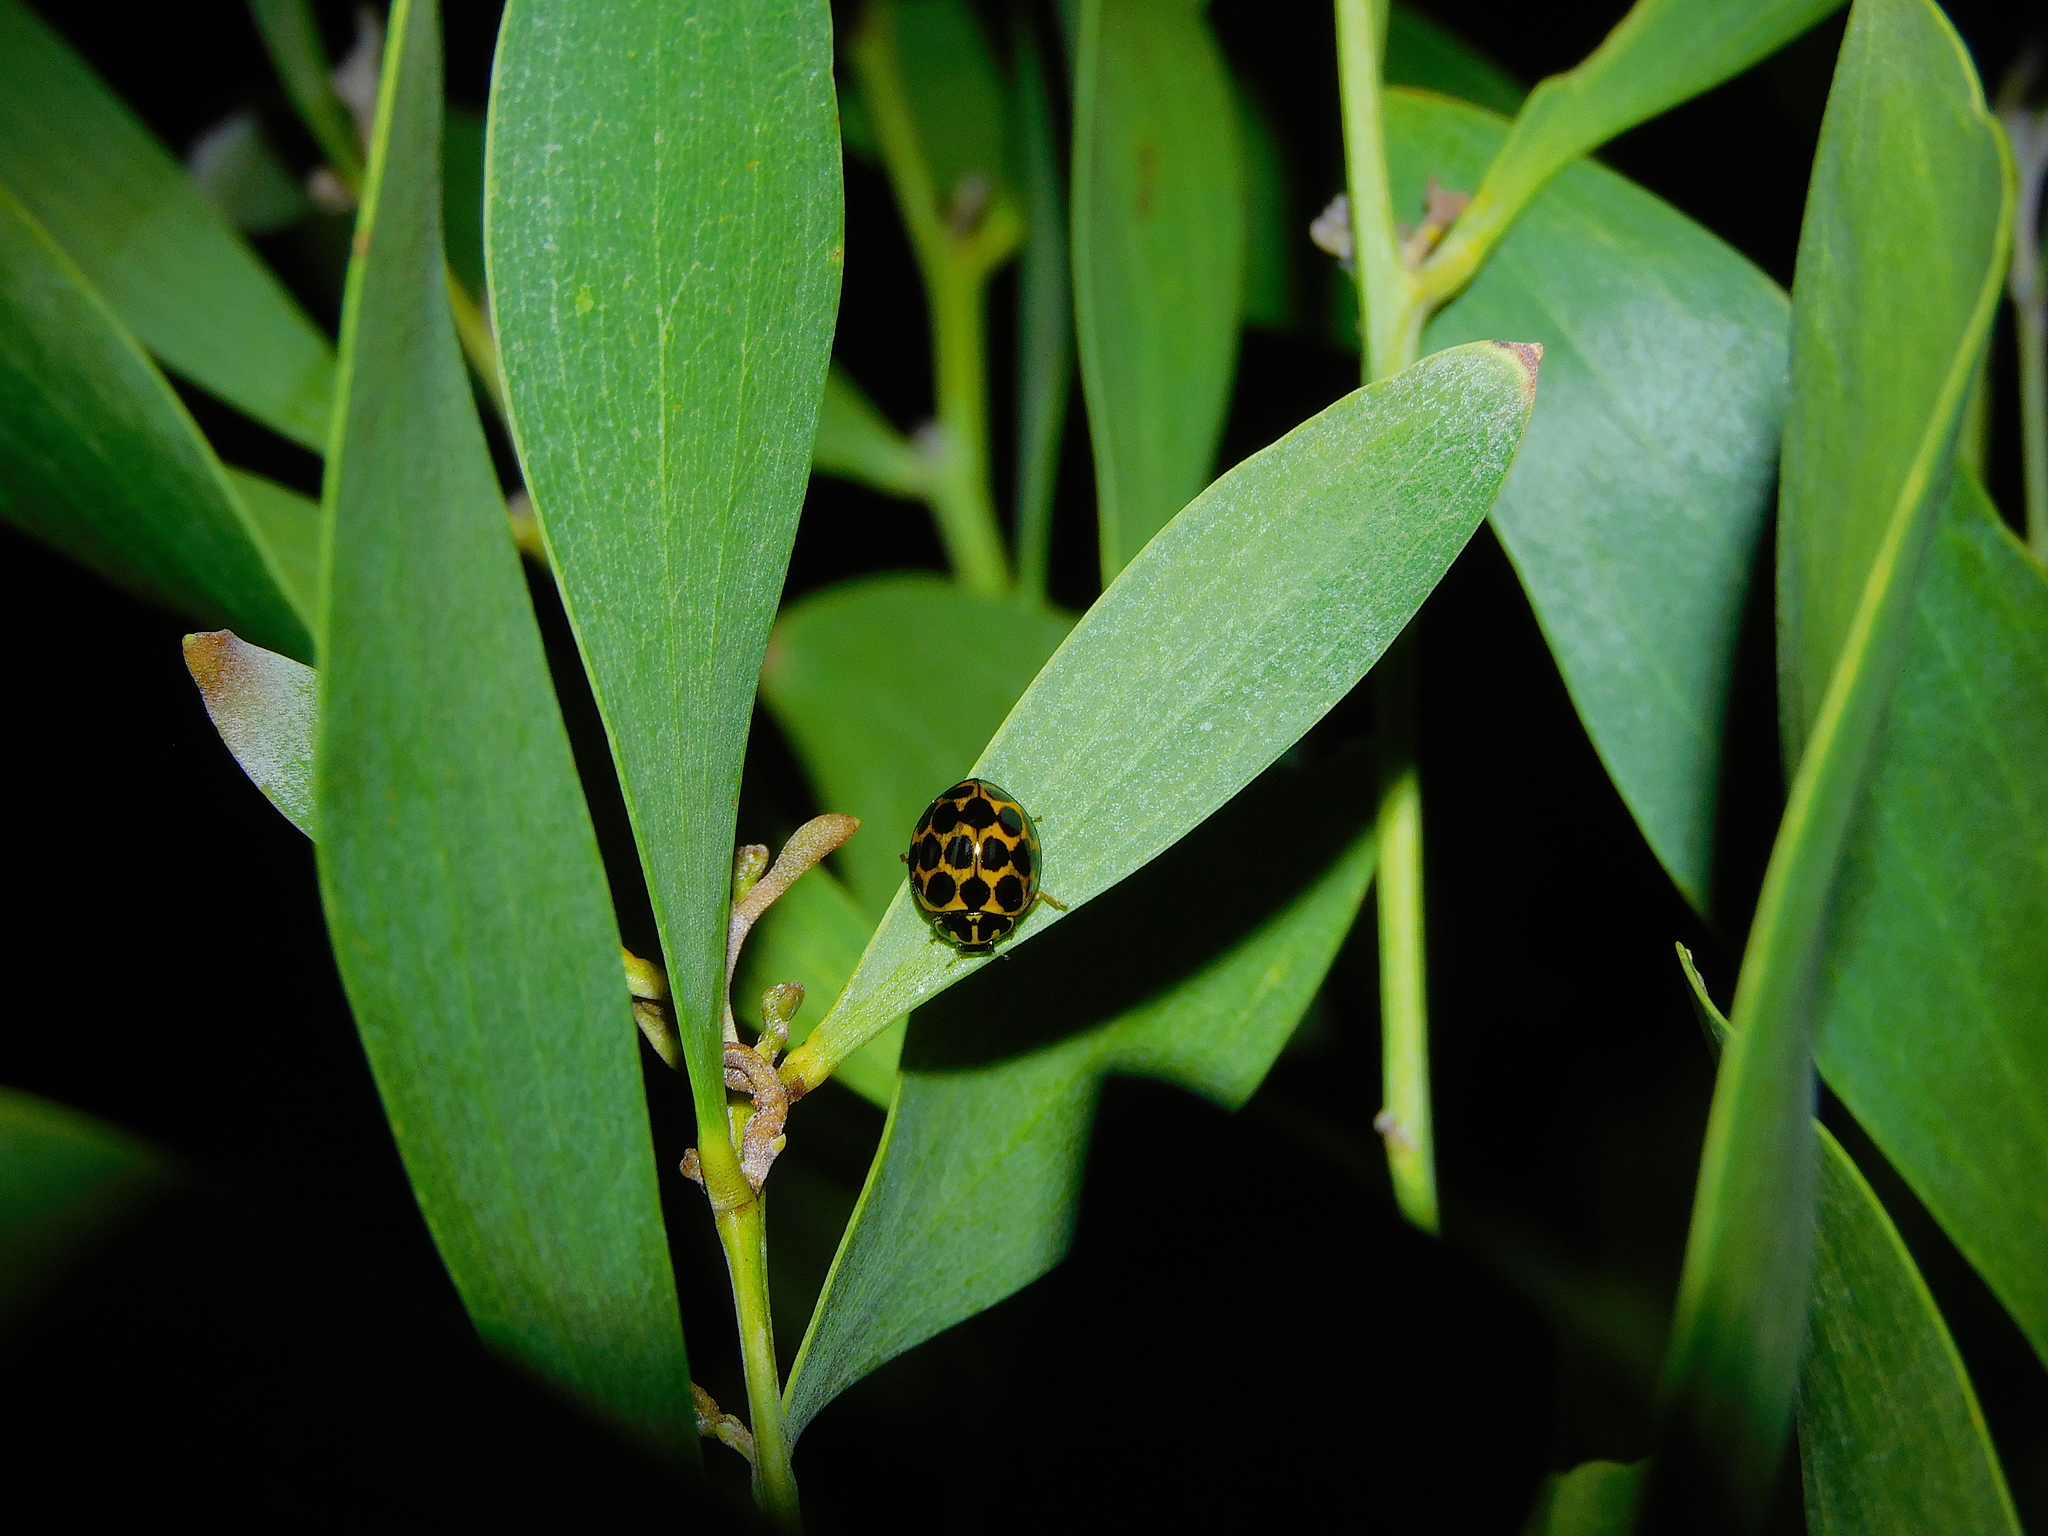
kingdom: Animalia
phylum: Arthropoda
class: Insecta
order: Coleoptera
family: Coccinellidae
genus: Harmonia
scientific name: Harmonia conformis
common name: Common spotted ladybird beetle
